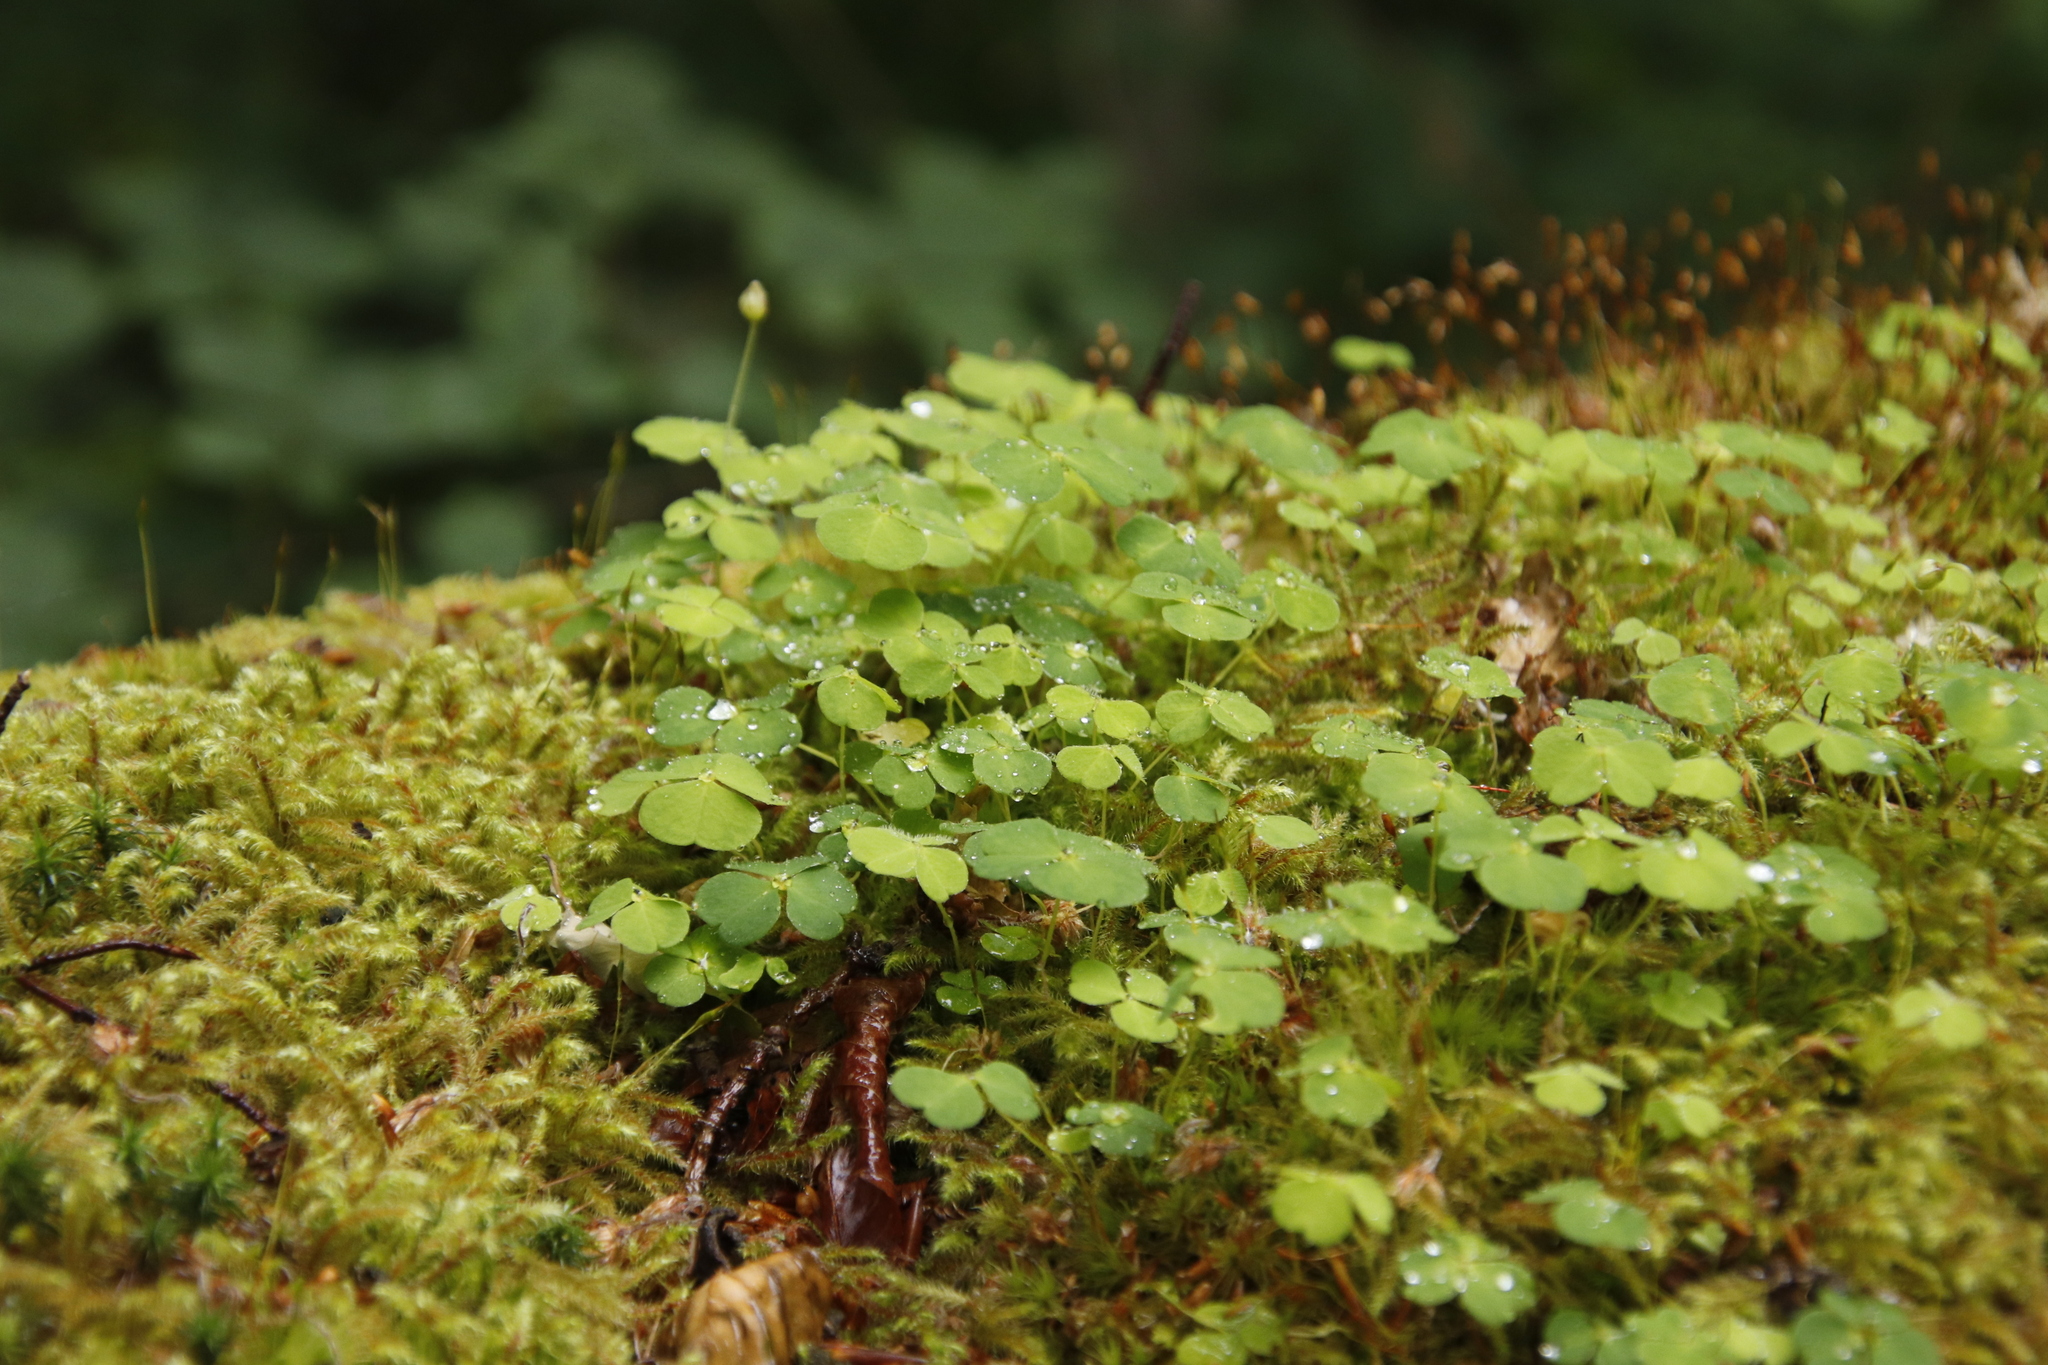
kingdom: Plantae
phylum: Tracheophyta
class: Magnoliopsida
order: Oxalidales
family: Oxalidaceae
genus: Oxalis
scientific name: Oxalis acetosella
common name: Wood-sorrel
